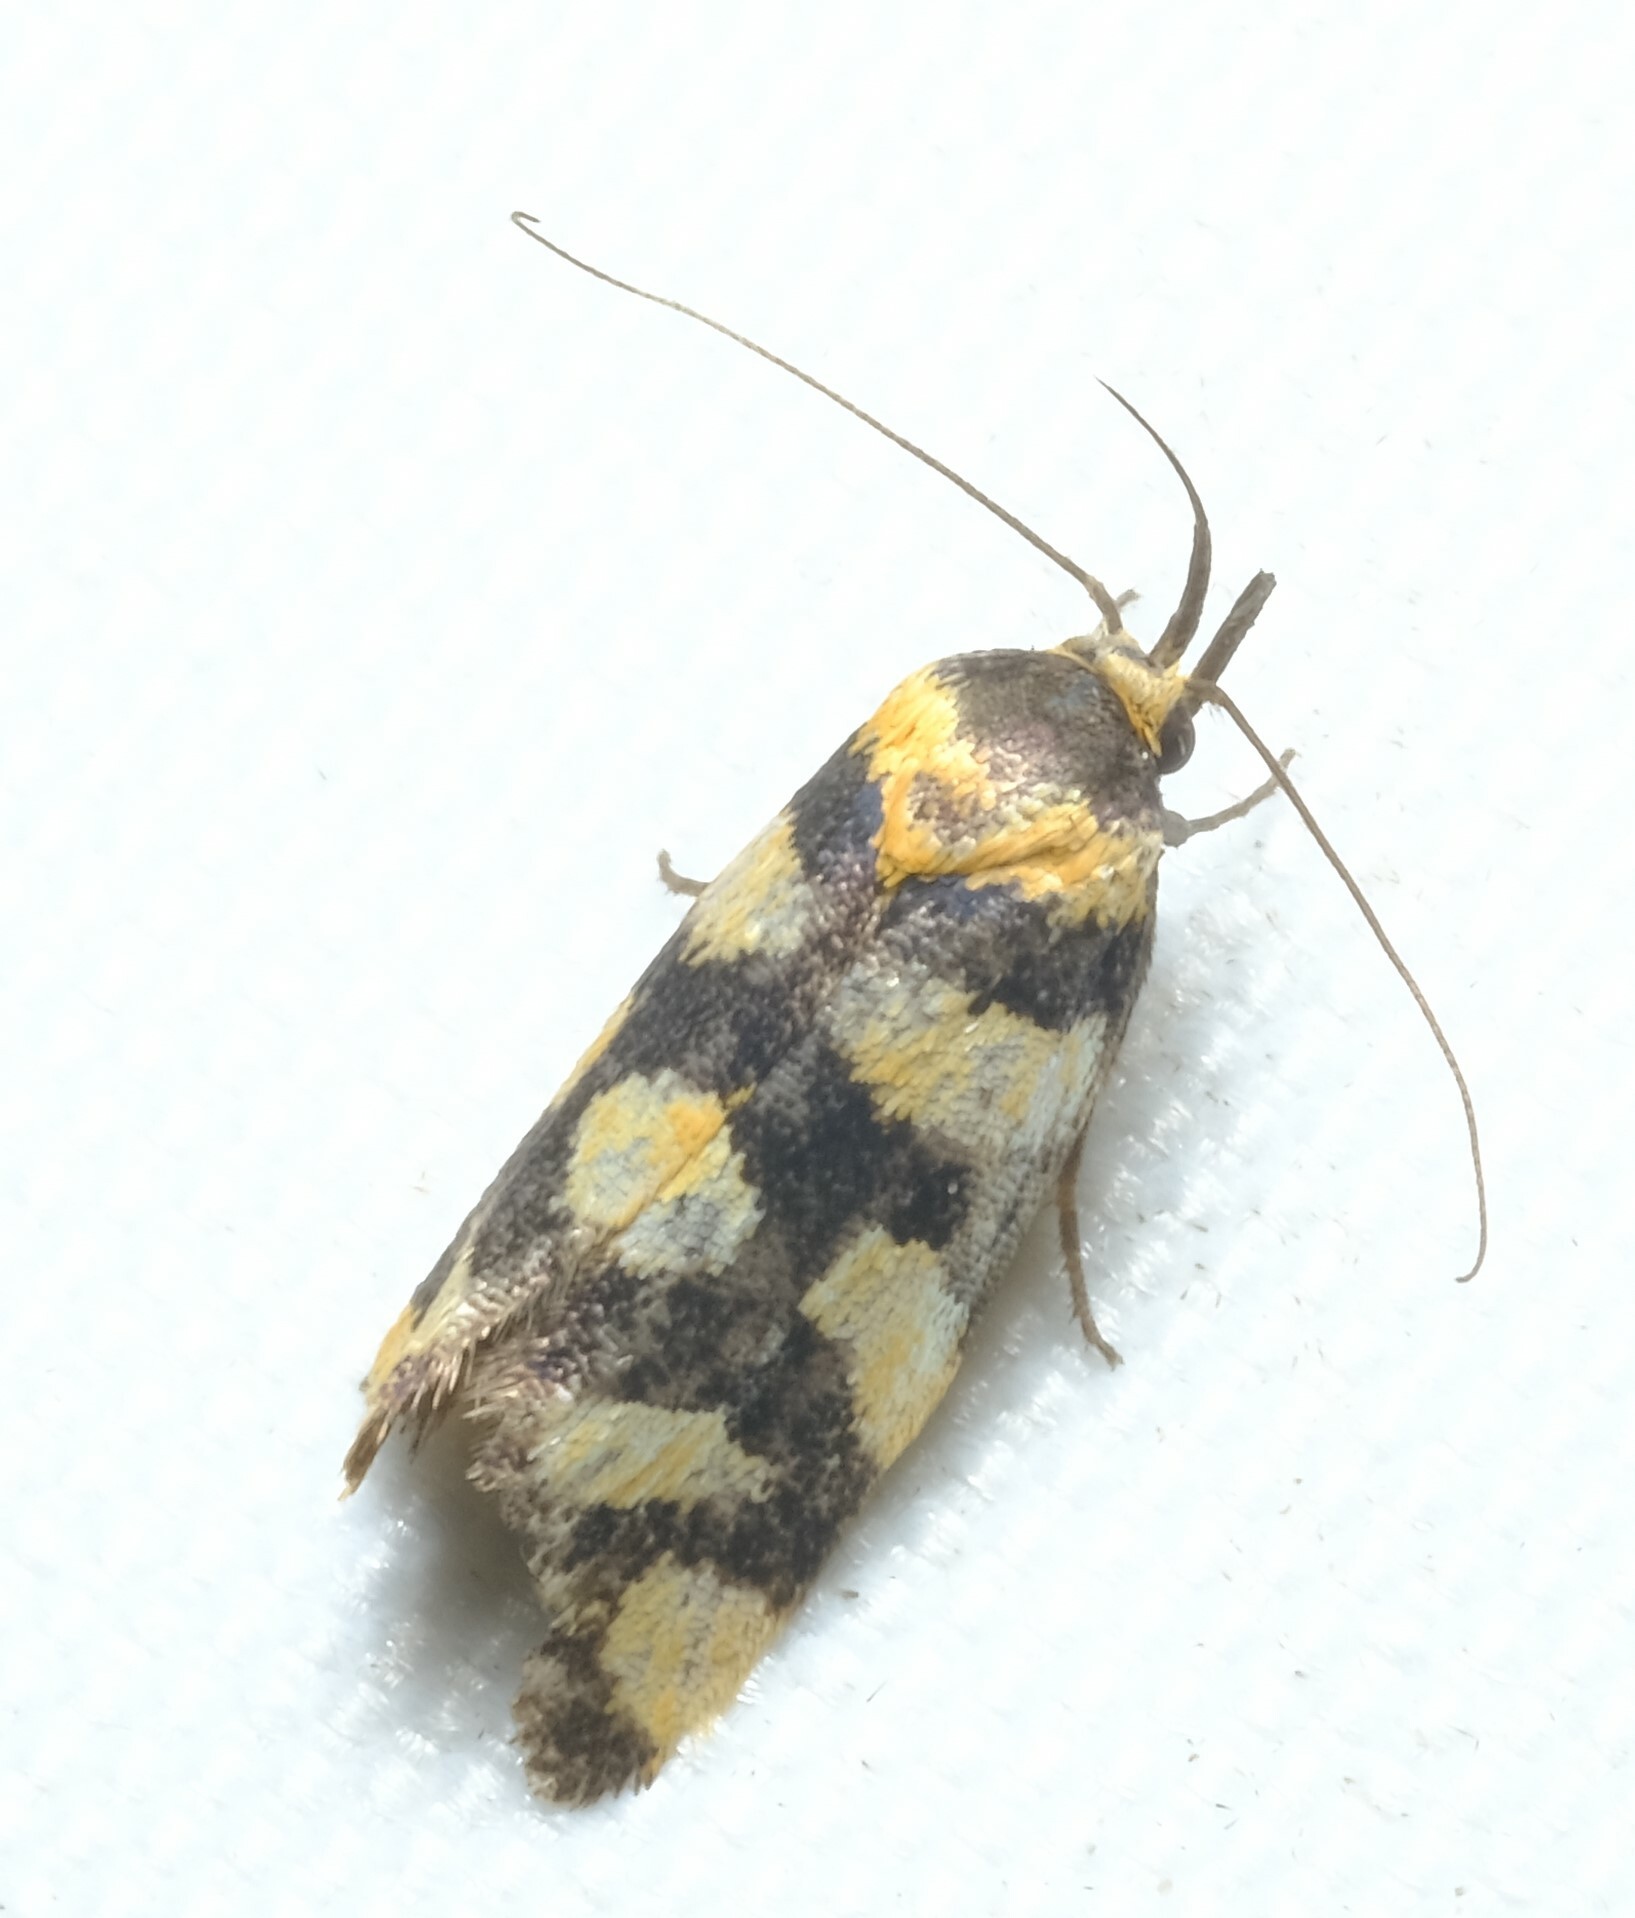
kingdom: Animalia
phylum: Arthropoda
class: Insecta
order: Lepidoptera
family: Oecophoridae
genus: Tanyzancla
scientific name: Tanyzancla argutella
